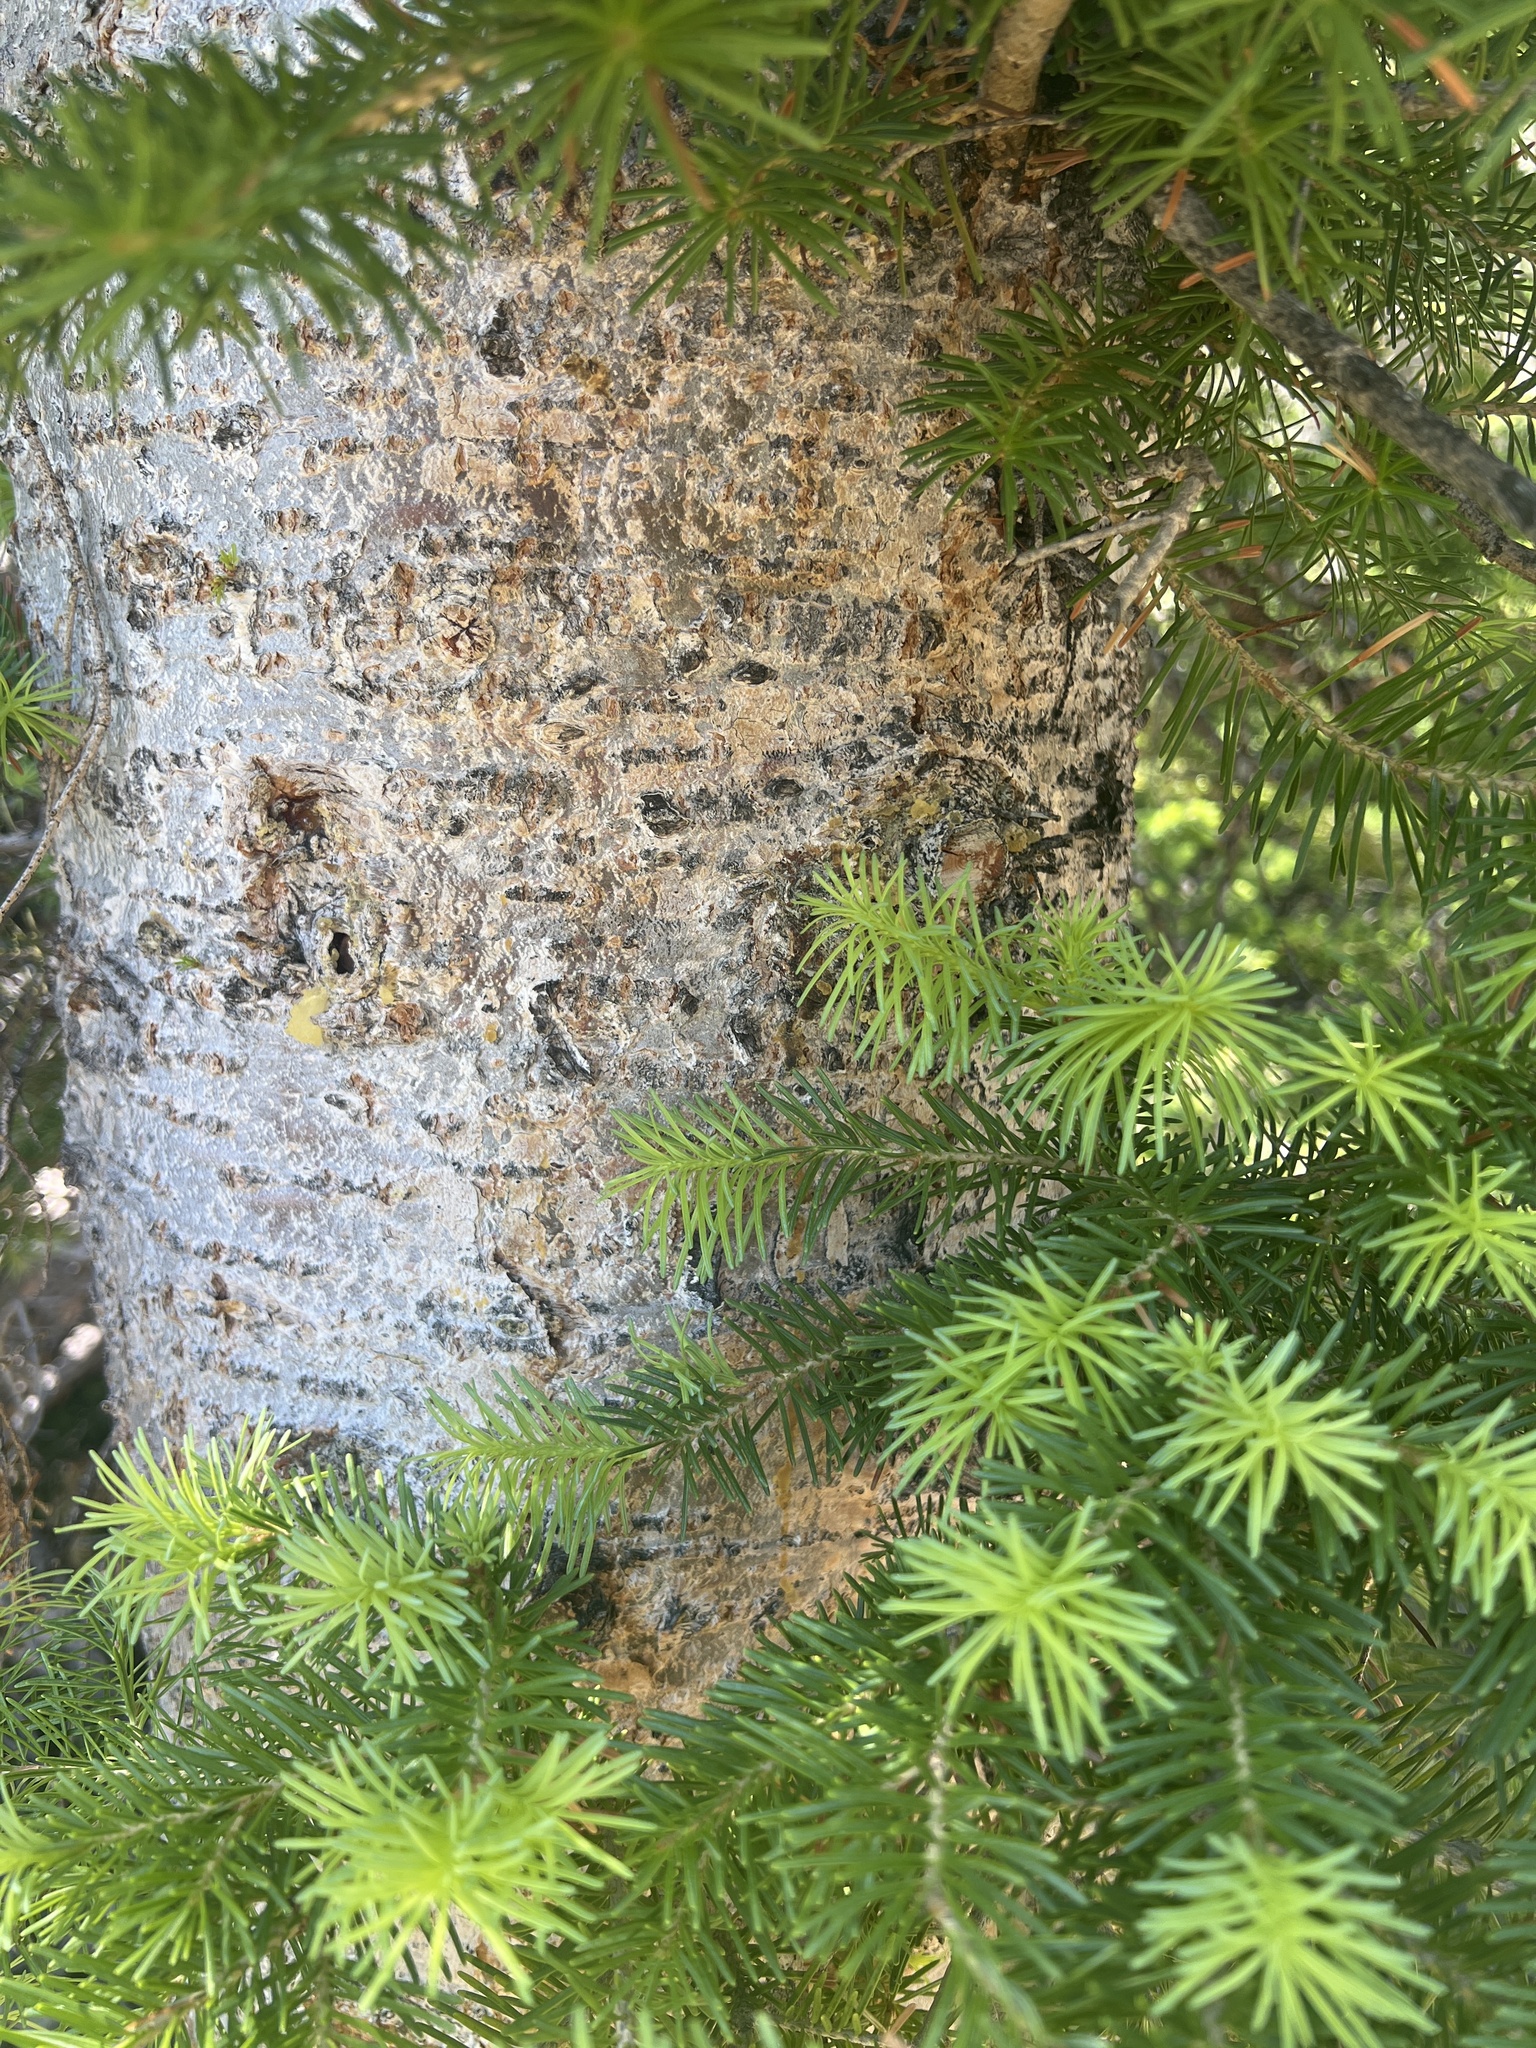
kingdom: Plantae
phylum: Tracheophyta
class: Pinopsida
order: Pinales
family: Pinaceae
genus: Abies
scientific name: Abies lasiocarpa
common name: Subalpine fir
